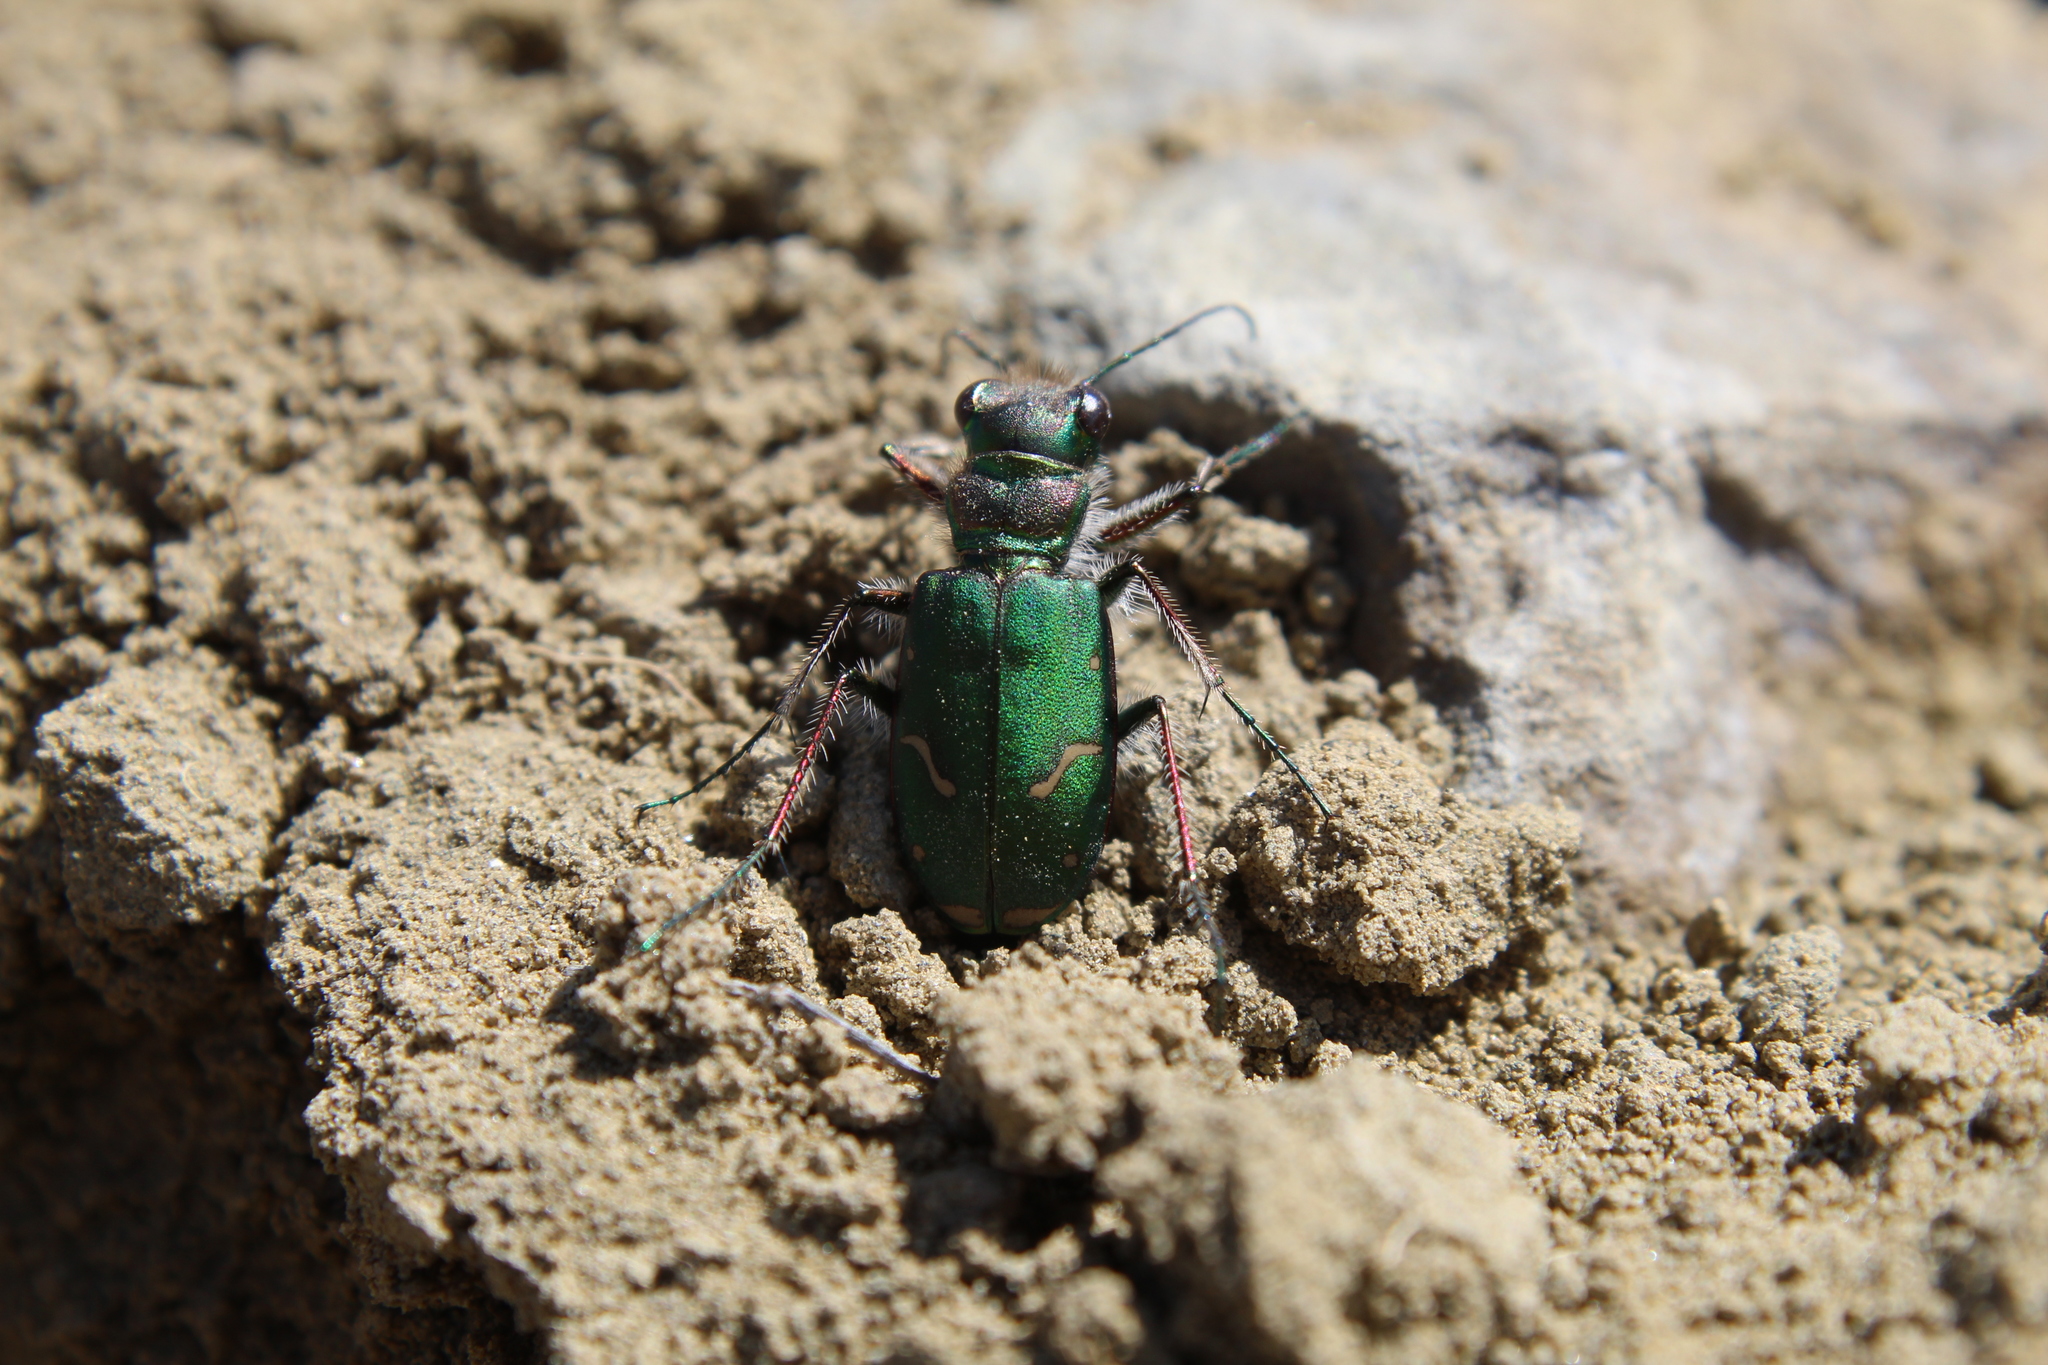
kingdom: Animalia
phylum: Arthropoda
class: Insecta
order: Coleoptera
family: Carabidae
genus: Cicindela
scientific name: Cicindela purpurea
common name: Cow path tiger beetle
